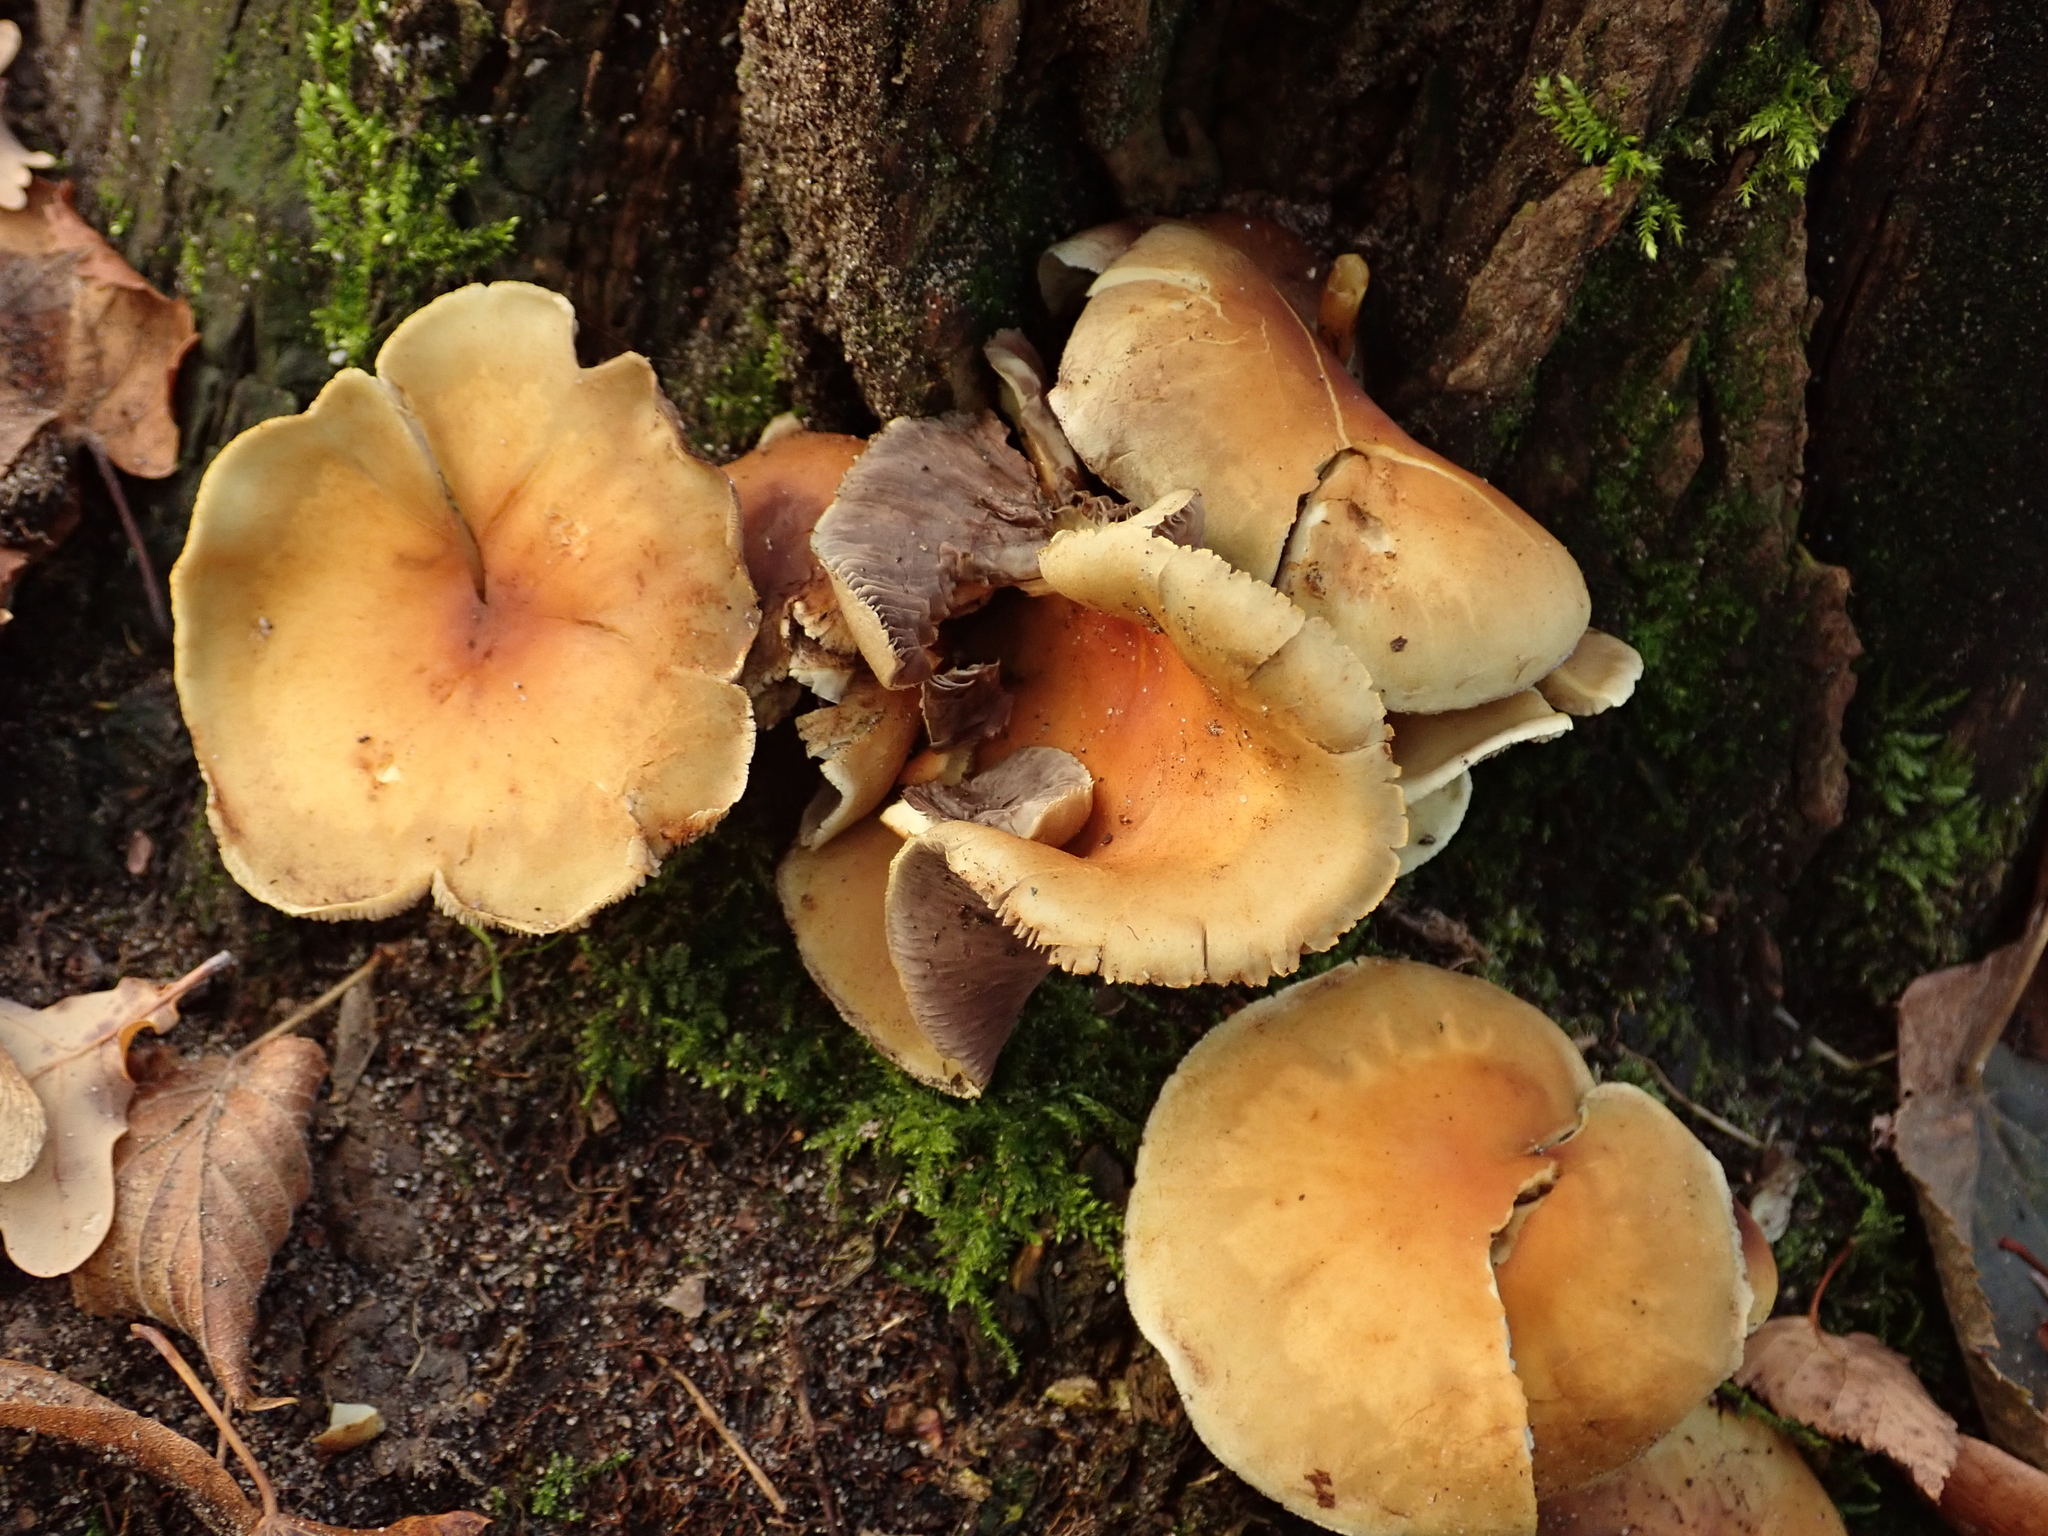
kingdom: Fungi
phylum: Basidiomycota
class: Agaricomycetes
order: Agaricales
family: Strophariaceae
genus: Hypholoma
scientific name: Hypholoma capnoides
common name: Conifer tuft
